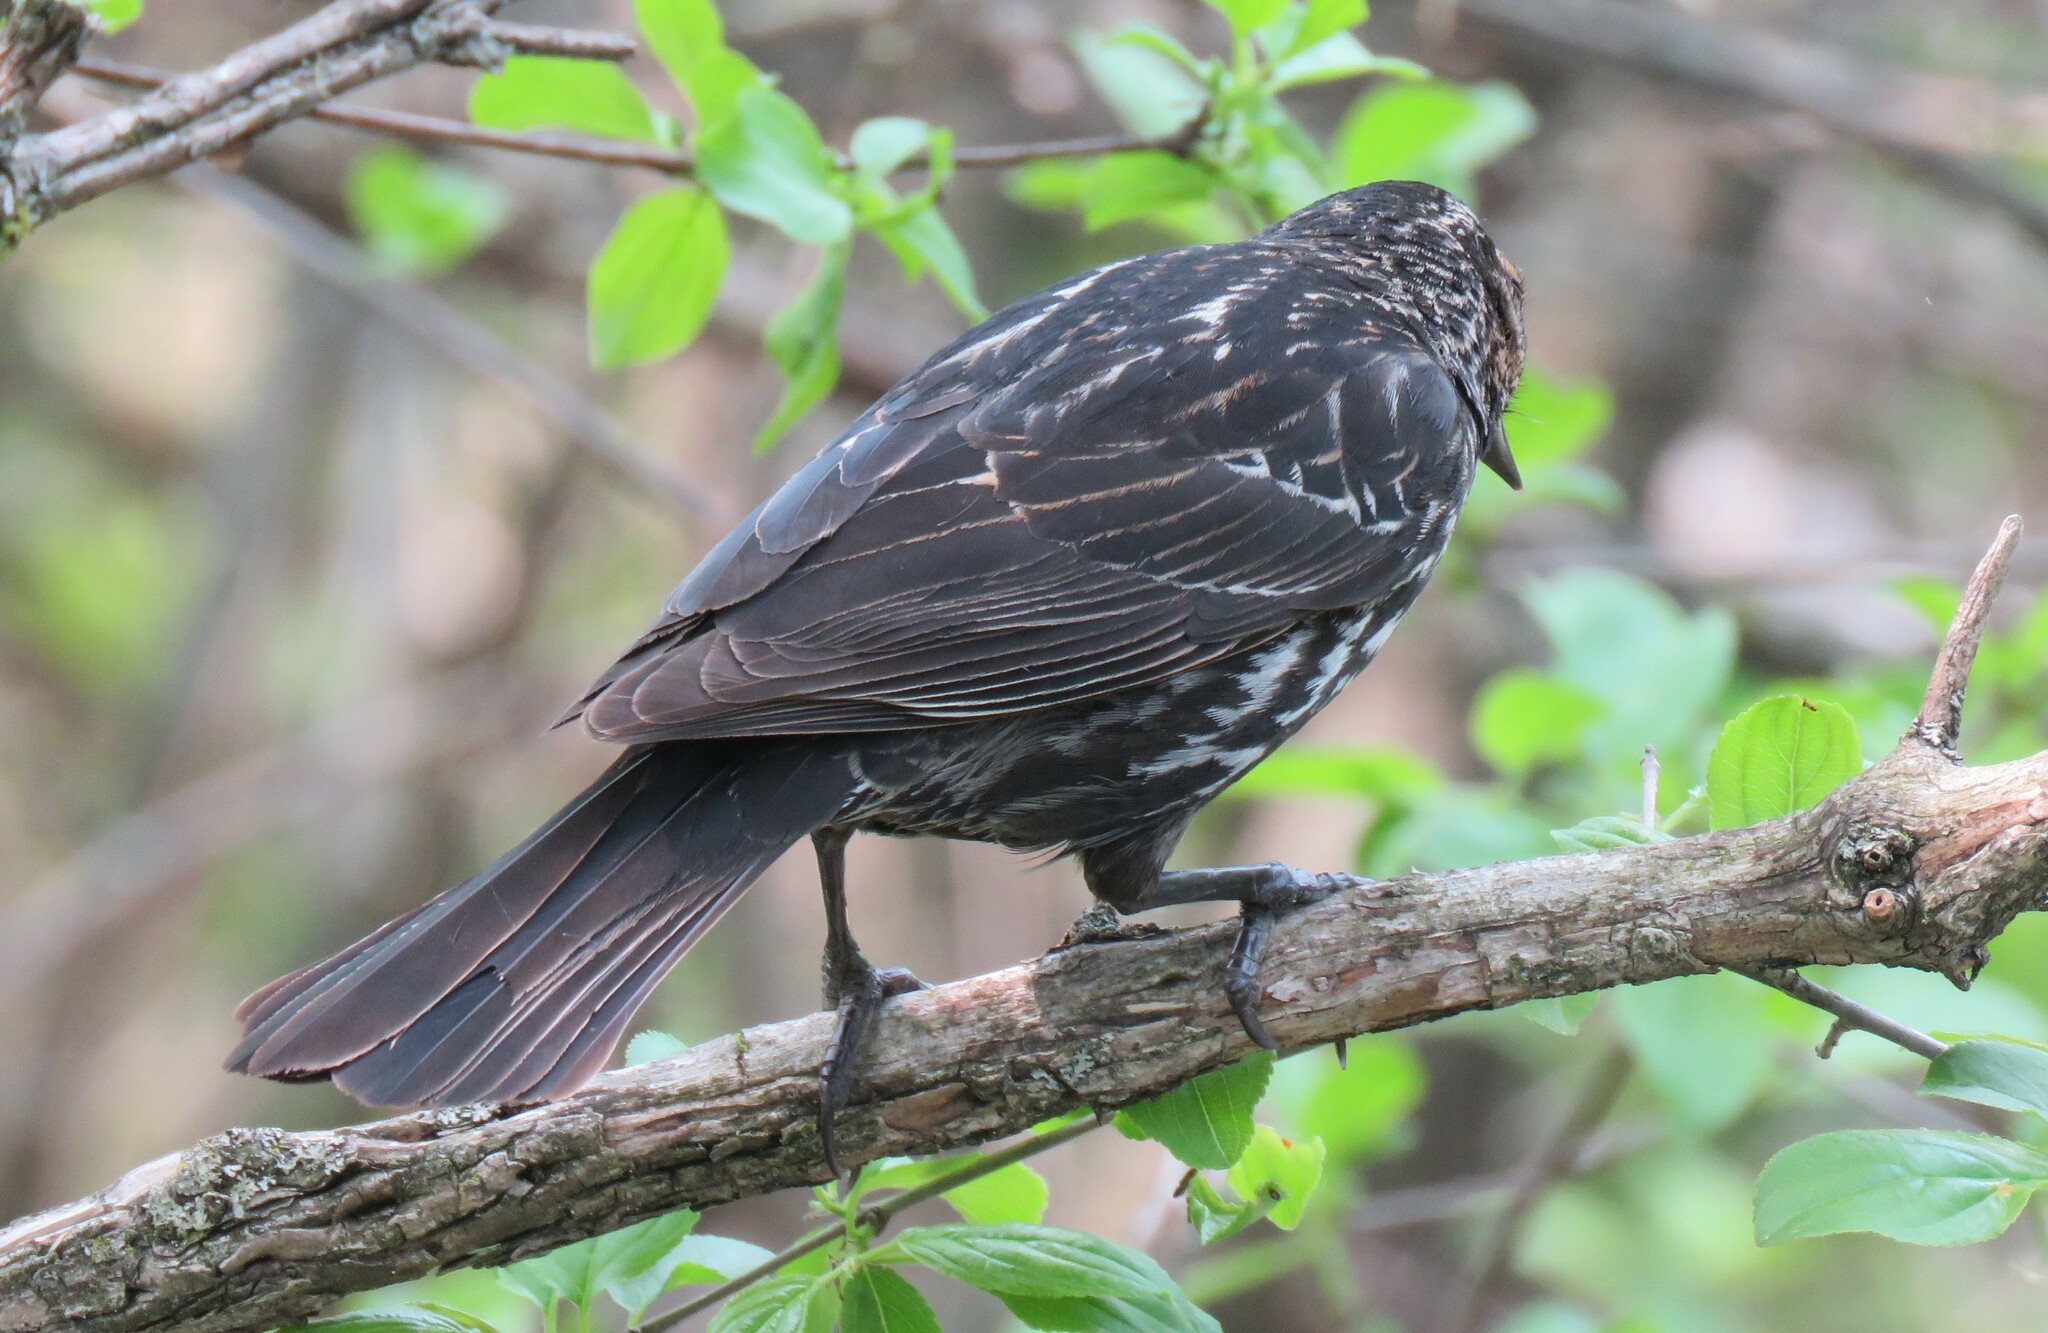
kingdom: Animalia
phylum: Chordata
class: Aves
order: Passeriformes
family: Icteridae
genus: Agelaius
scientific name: Agelaius phoeniceus
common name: Red-winged blackbird
